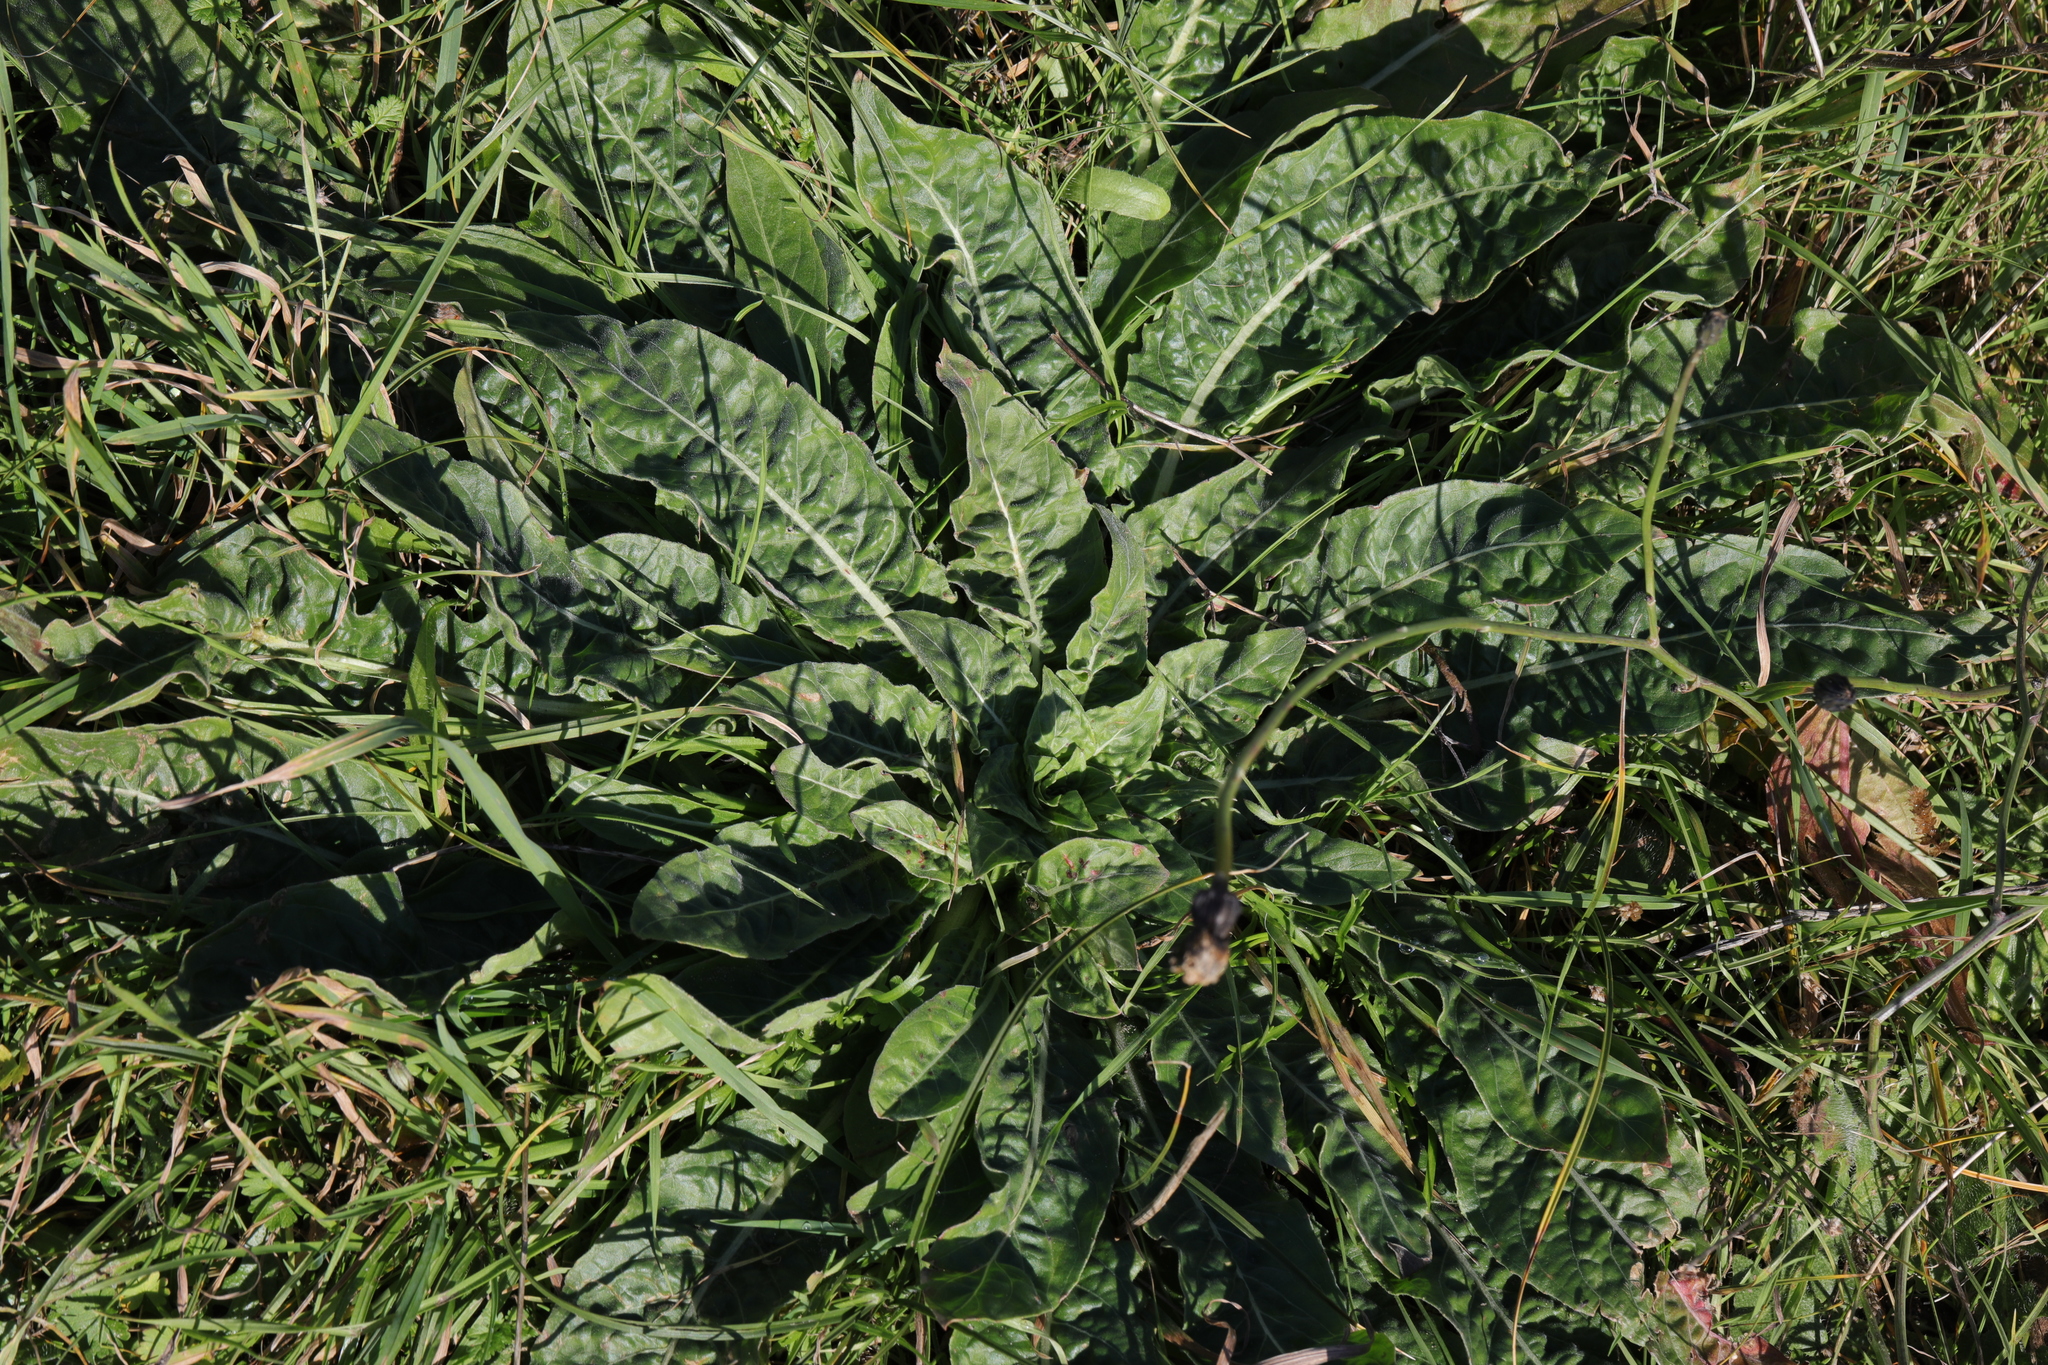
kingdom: Plantae
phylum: Tracheophyta
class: Magnoliopsida
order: Lamiales
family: Scrophulariaceae
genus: Verbascum
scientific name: Verbascum thapsus
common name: Common mullein
